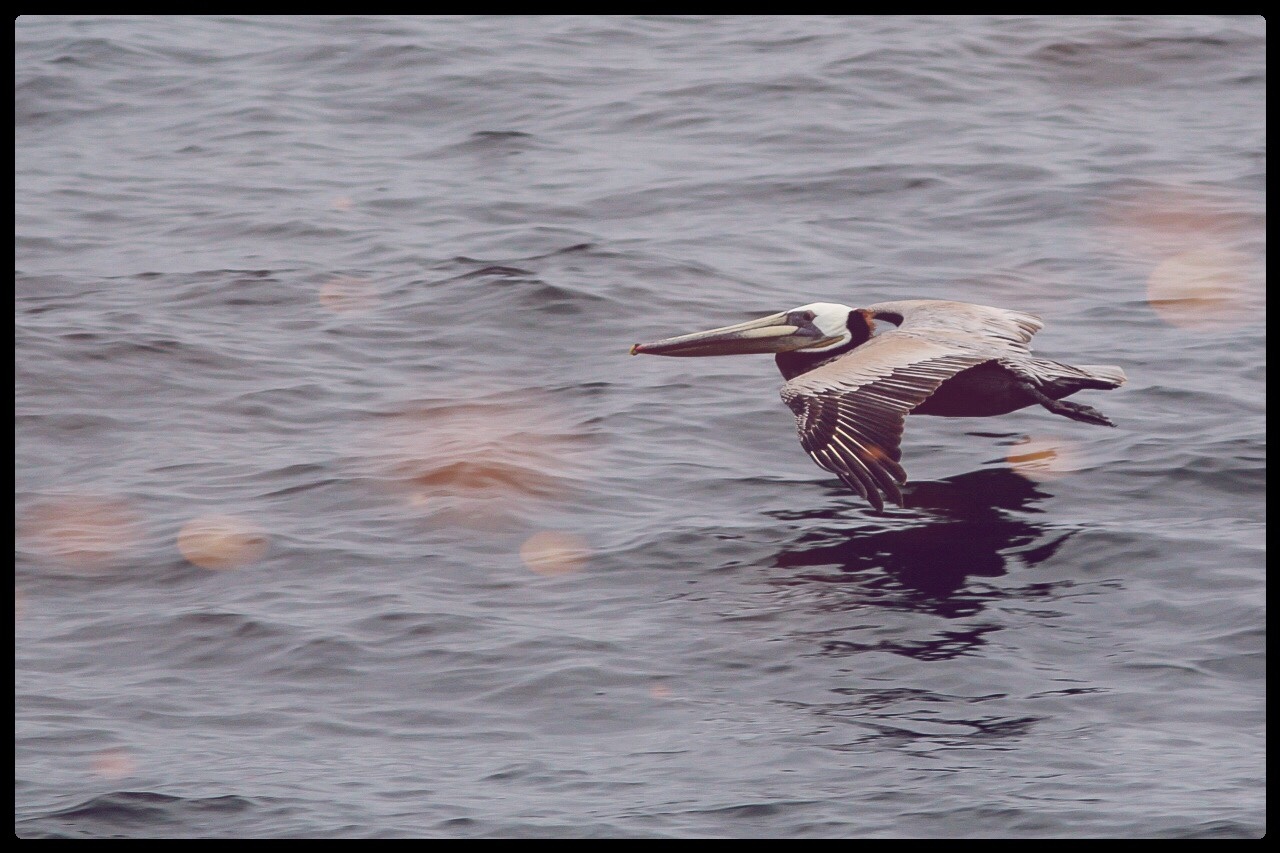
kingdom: Animalia
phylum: Chordata
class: Aves
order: Pelecaniformes
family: Pelecanidae
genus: Pelecanus
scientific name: Pelecanus occidentalis
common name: Brown pelican
